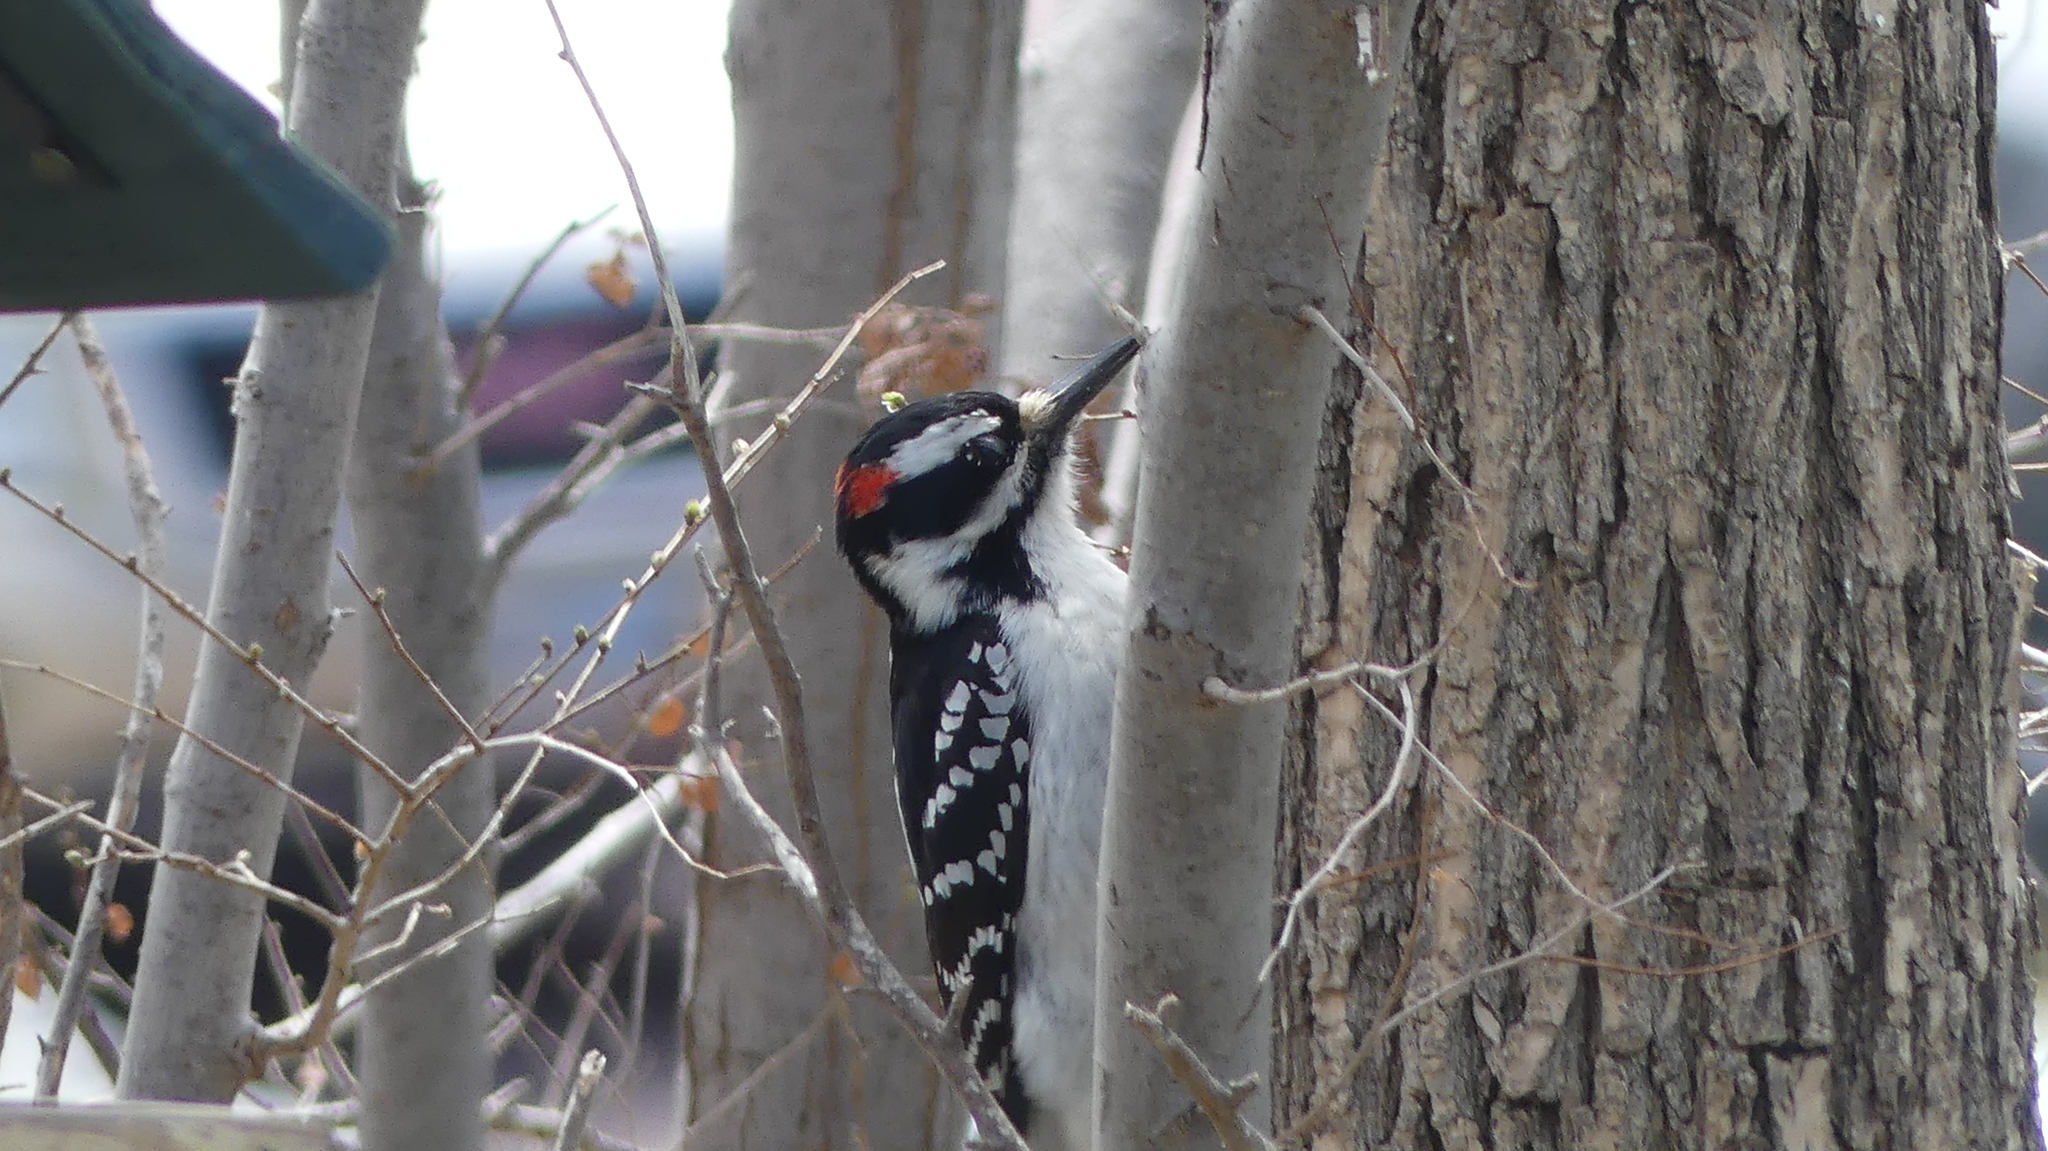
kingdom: Animalia
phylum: Chordata
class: Aves
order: Piciformes
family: Picidae
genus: Leuconotopicus
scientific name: Leuconotopicus villosus
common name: Hairy woodpecker
